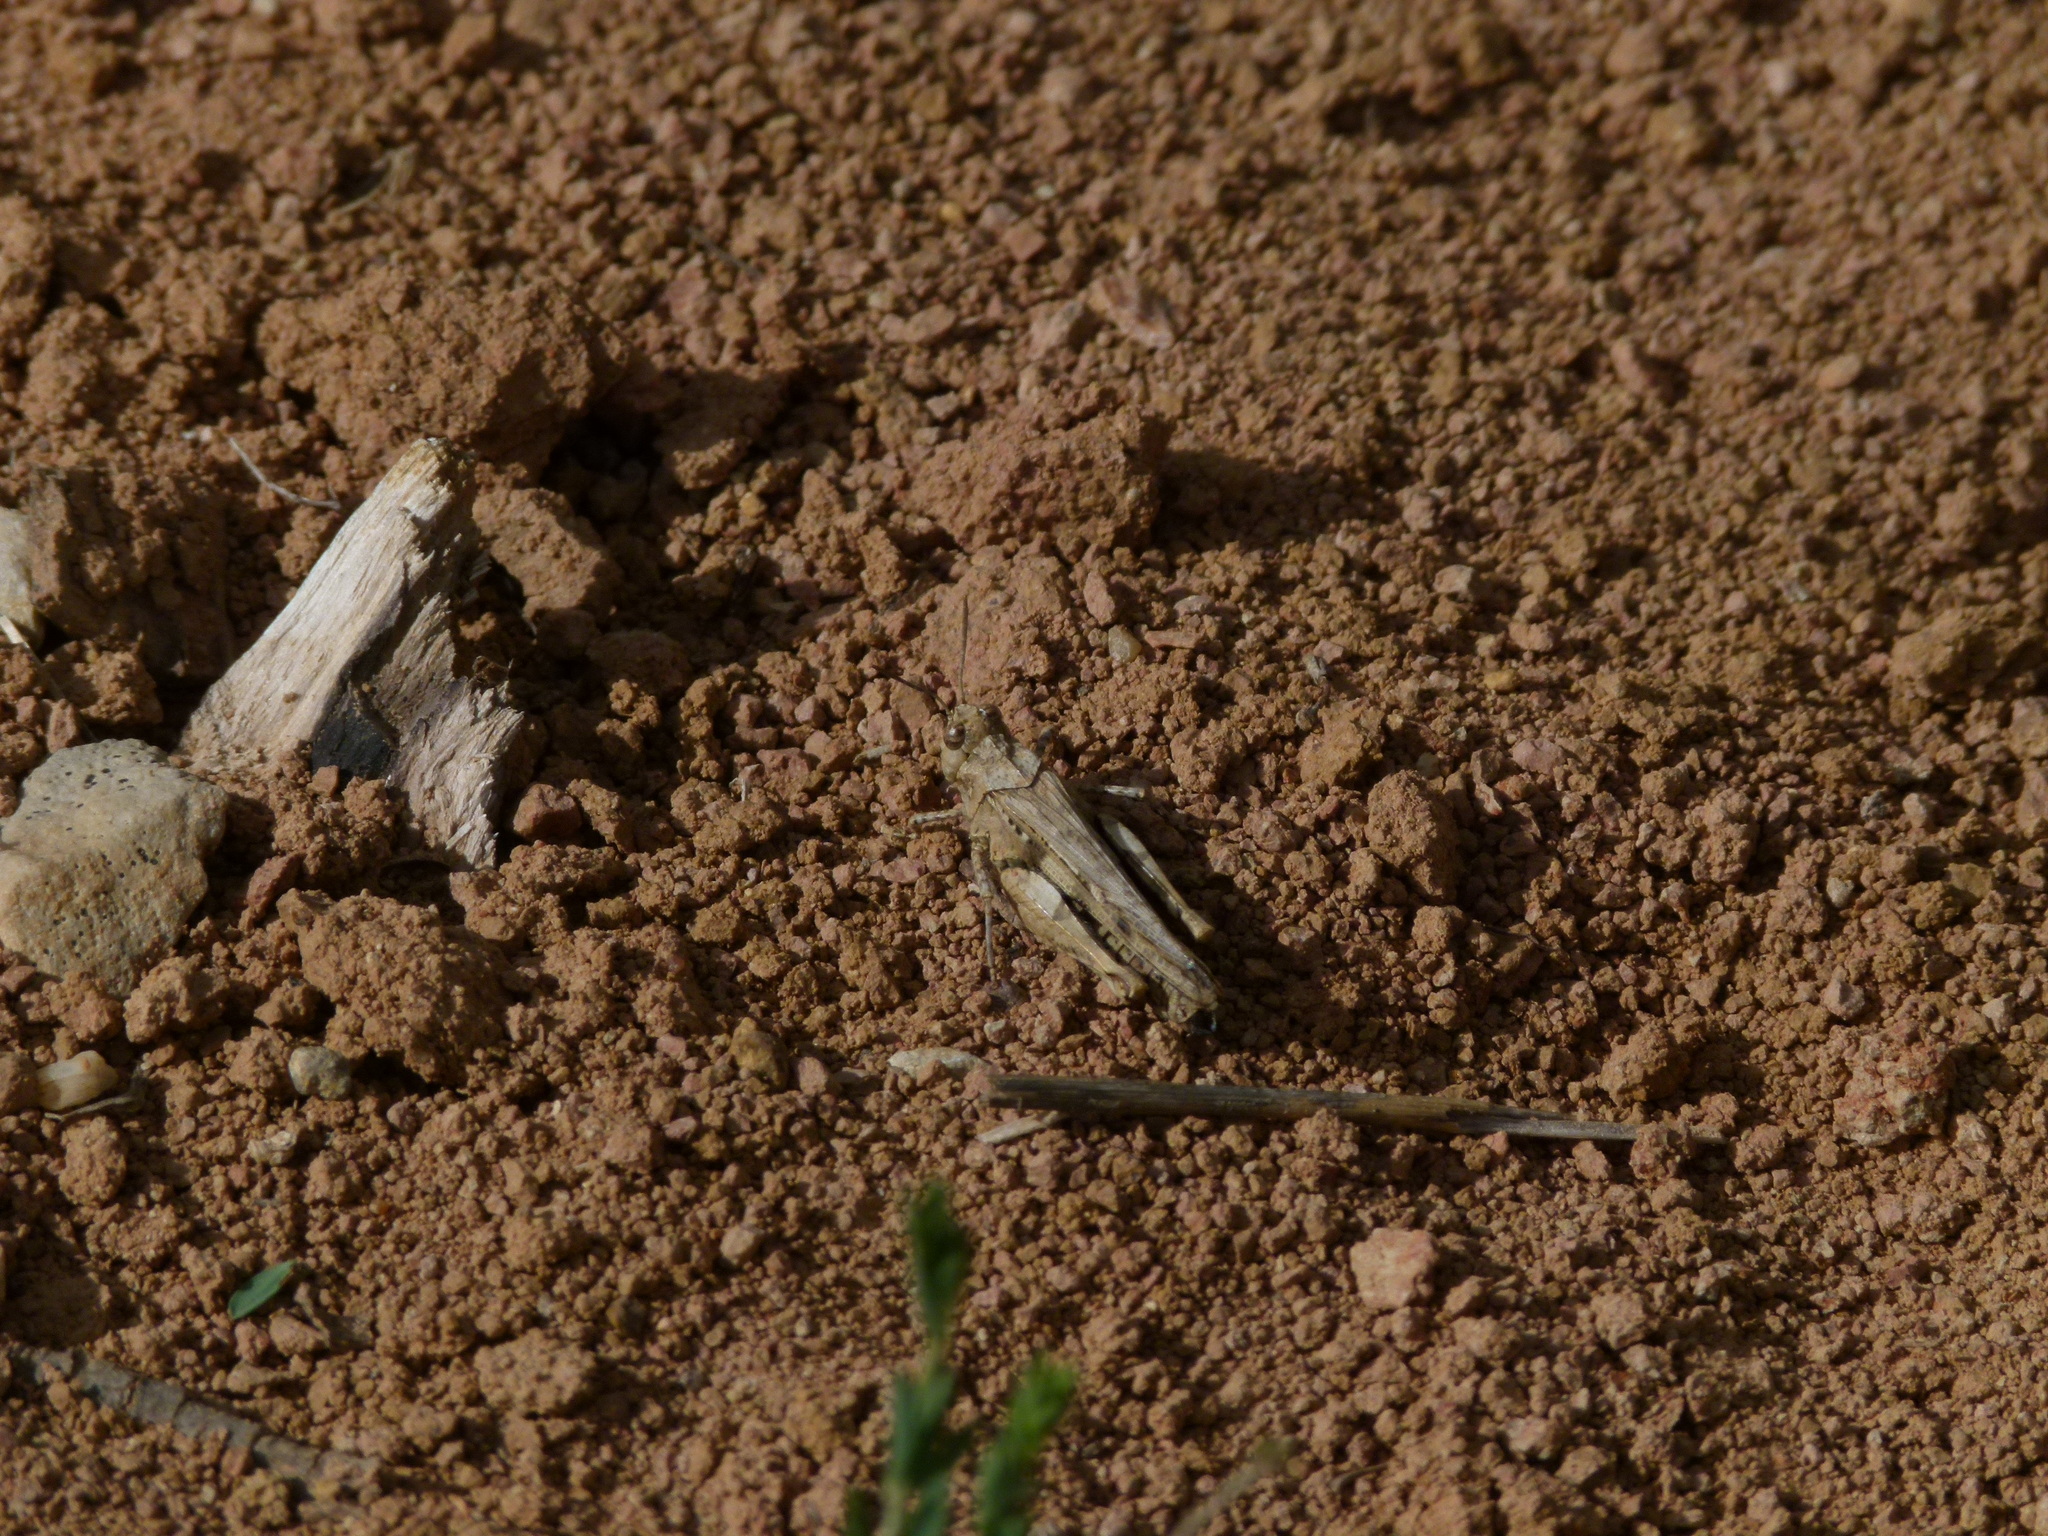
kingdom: Animalia
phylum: Arthropoda
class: Insecta
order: Orthoptera
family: Acrididae
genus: Acrotylus
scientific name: Acrotylus fischeri
